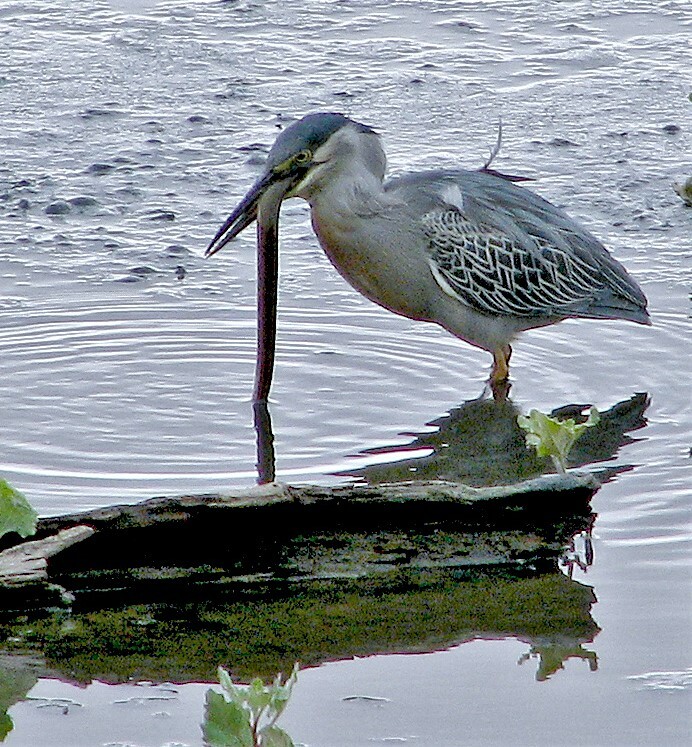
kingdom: Animalia
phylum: Chordata
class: Aves
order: Pelecaniformes
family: Ardeidae
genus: Butorides
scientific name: Butorides striata
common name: Striated heron
